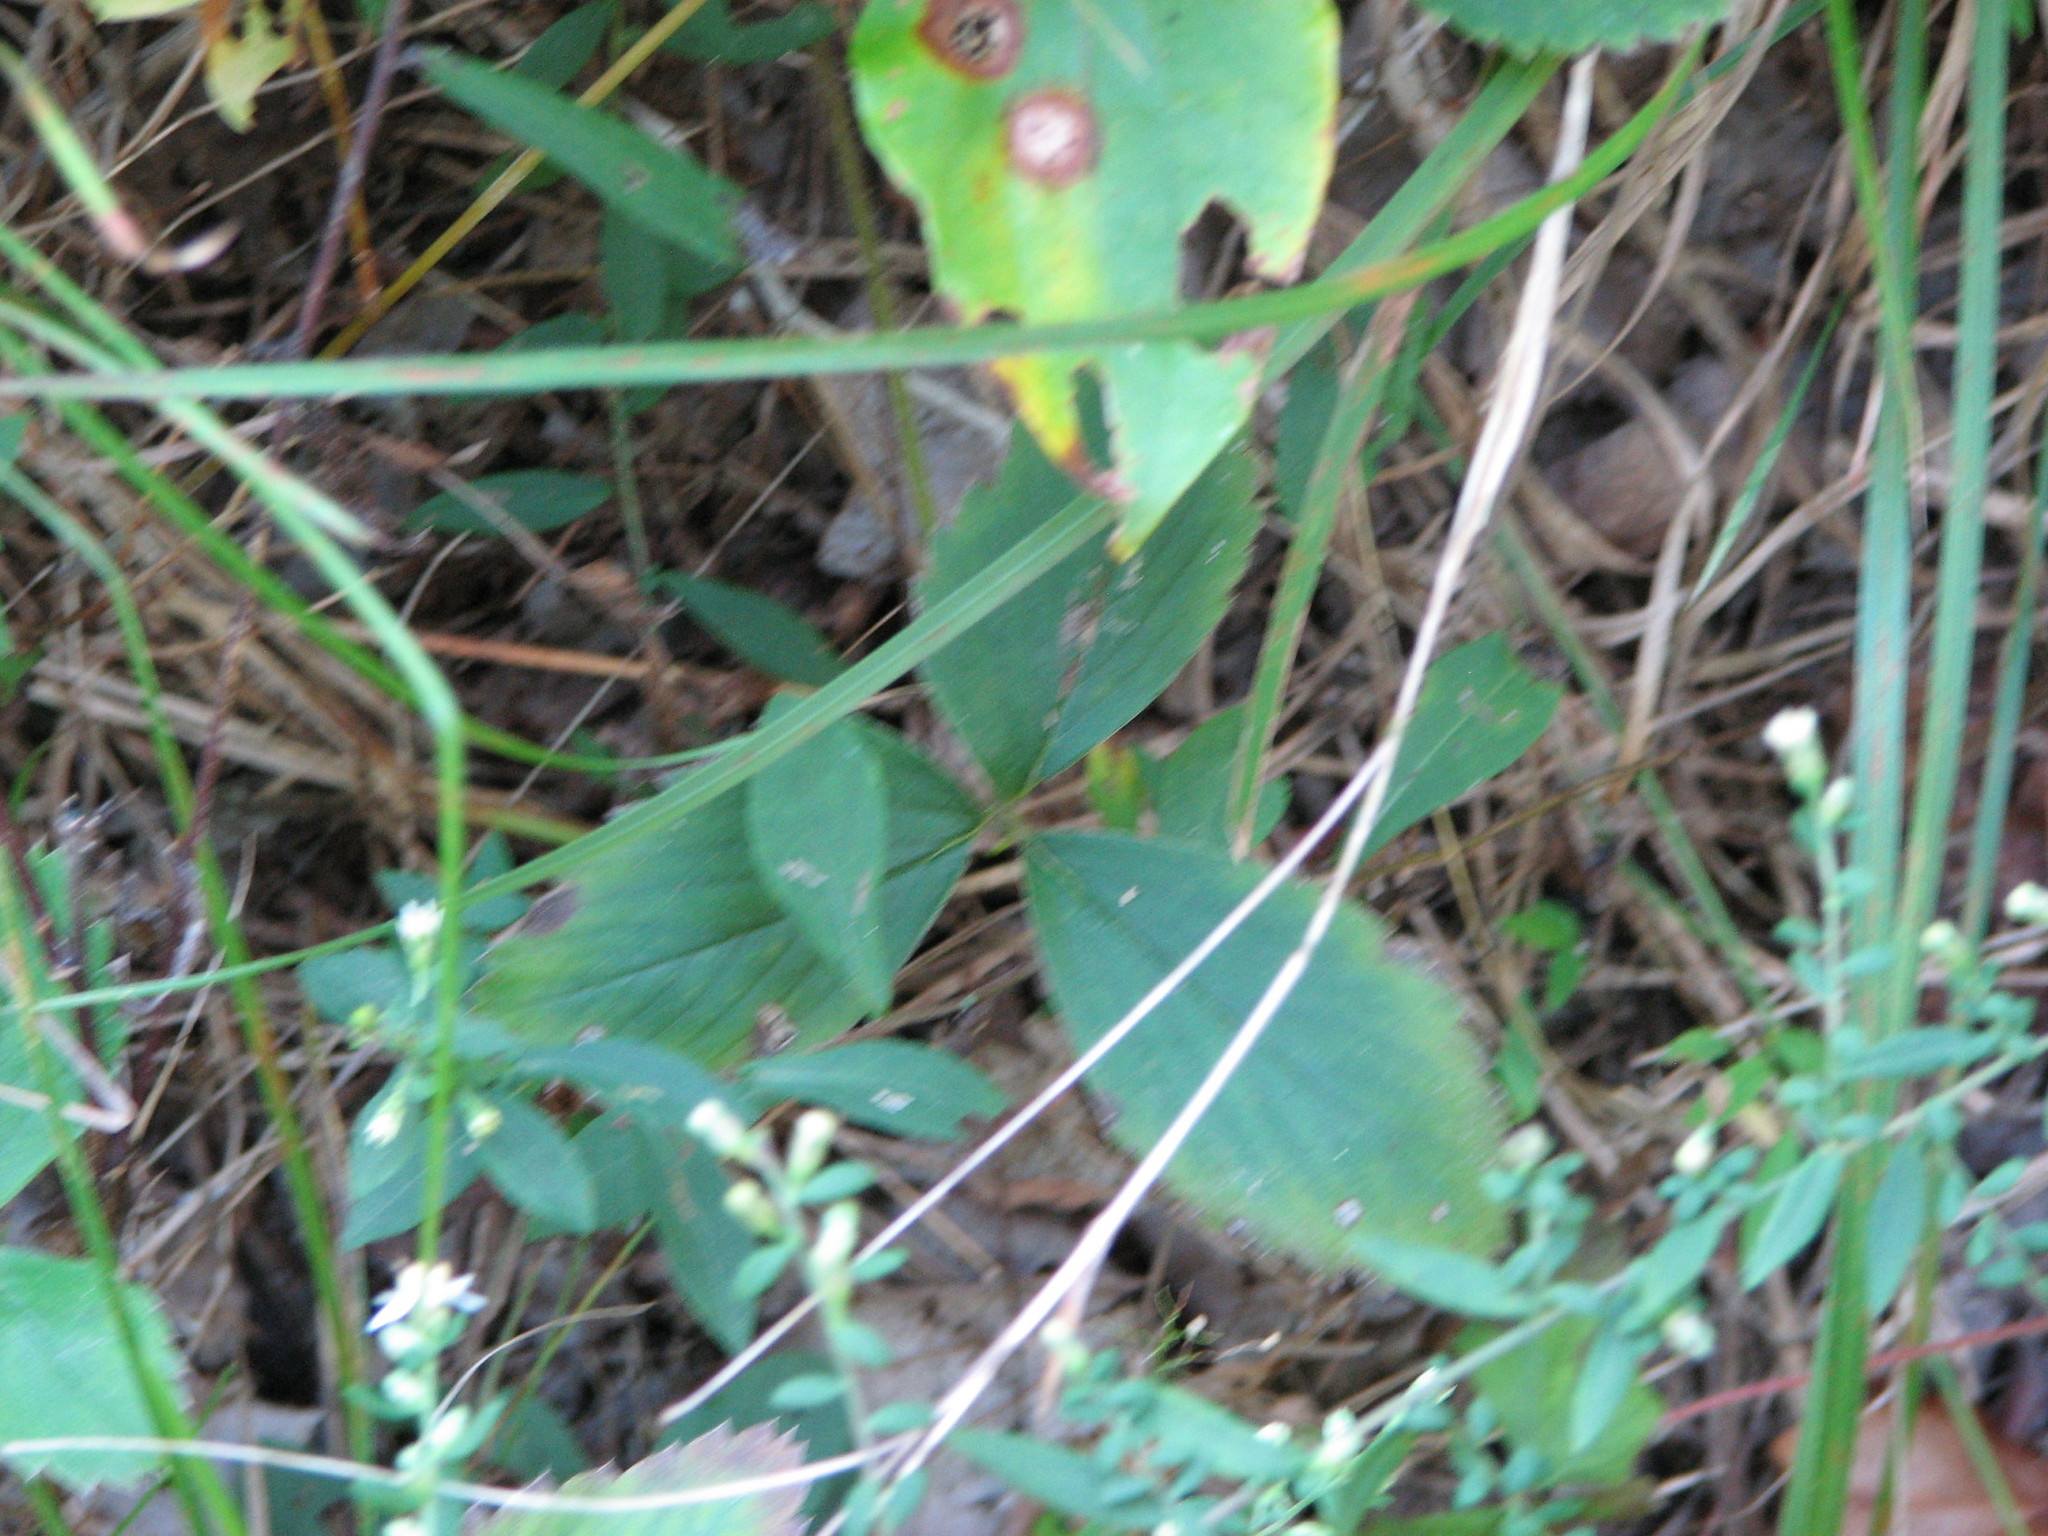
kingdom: Plantae
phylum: Tracheophyta
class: Magnoliopsida
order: Rosales
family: Rosaceae
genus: Fragaria
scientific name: Fragaria virginiana
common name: Thickleaved wild strawberry
